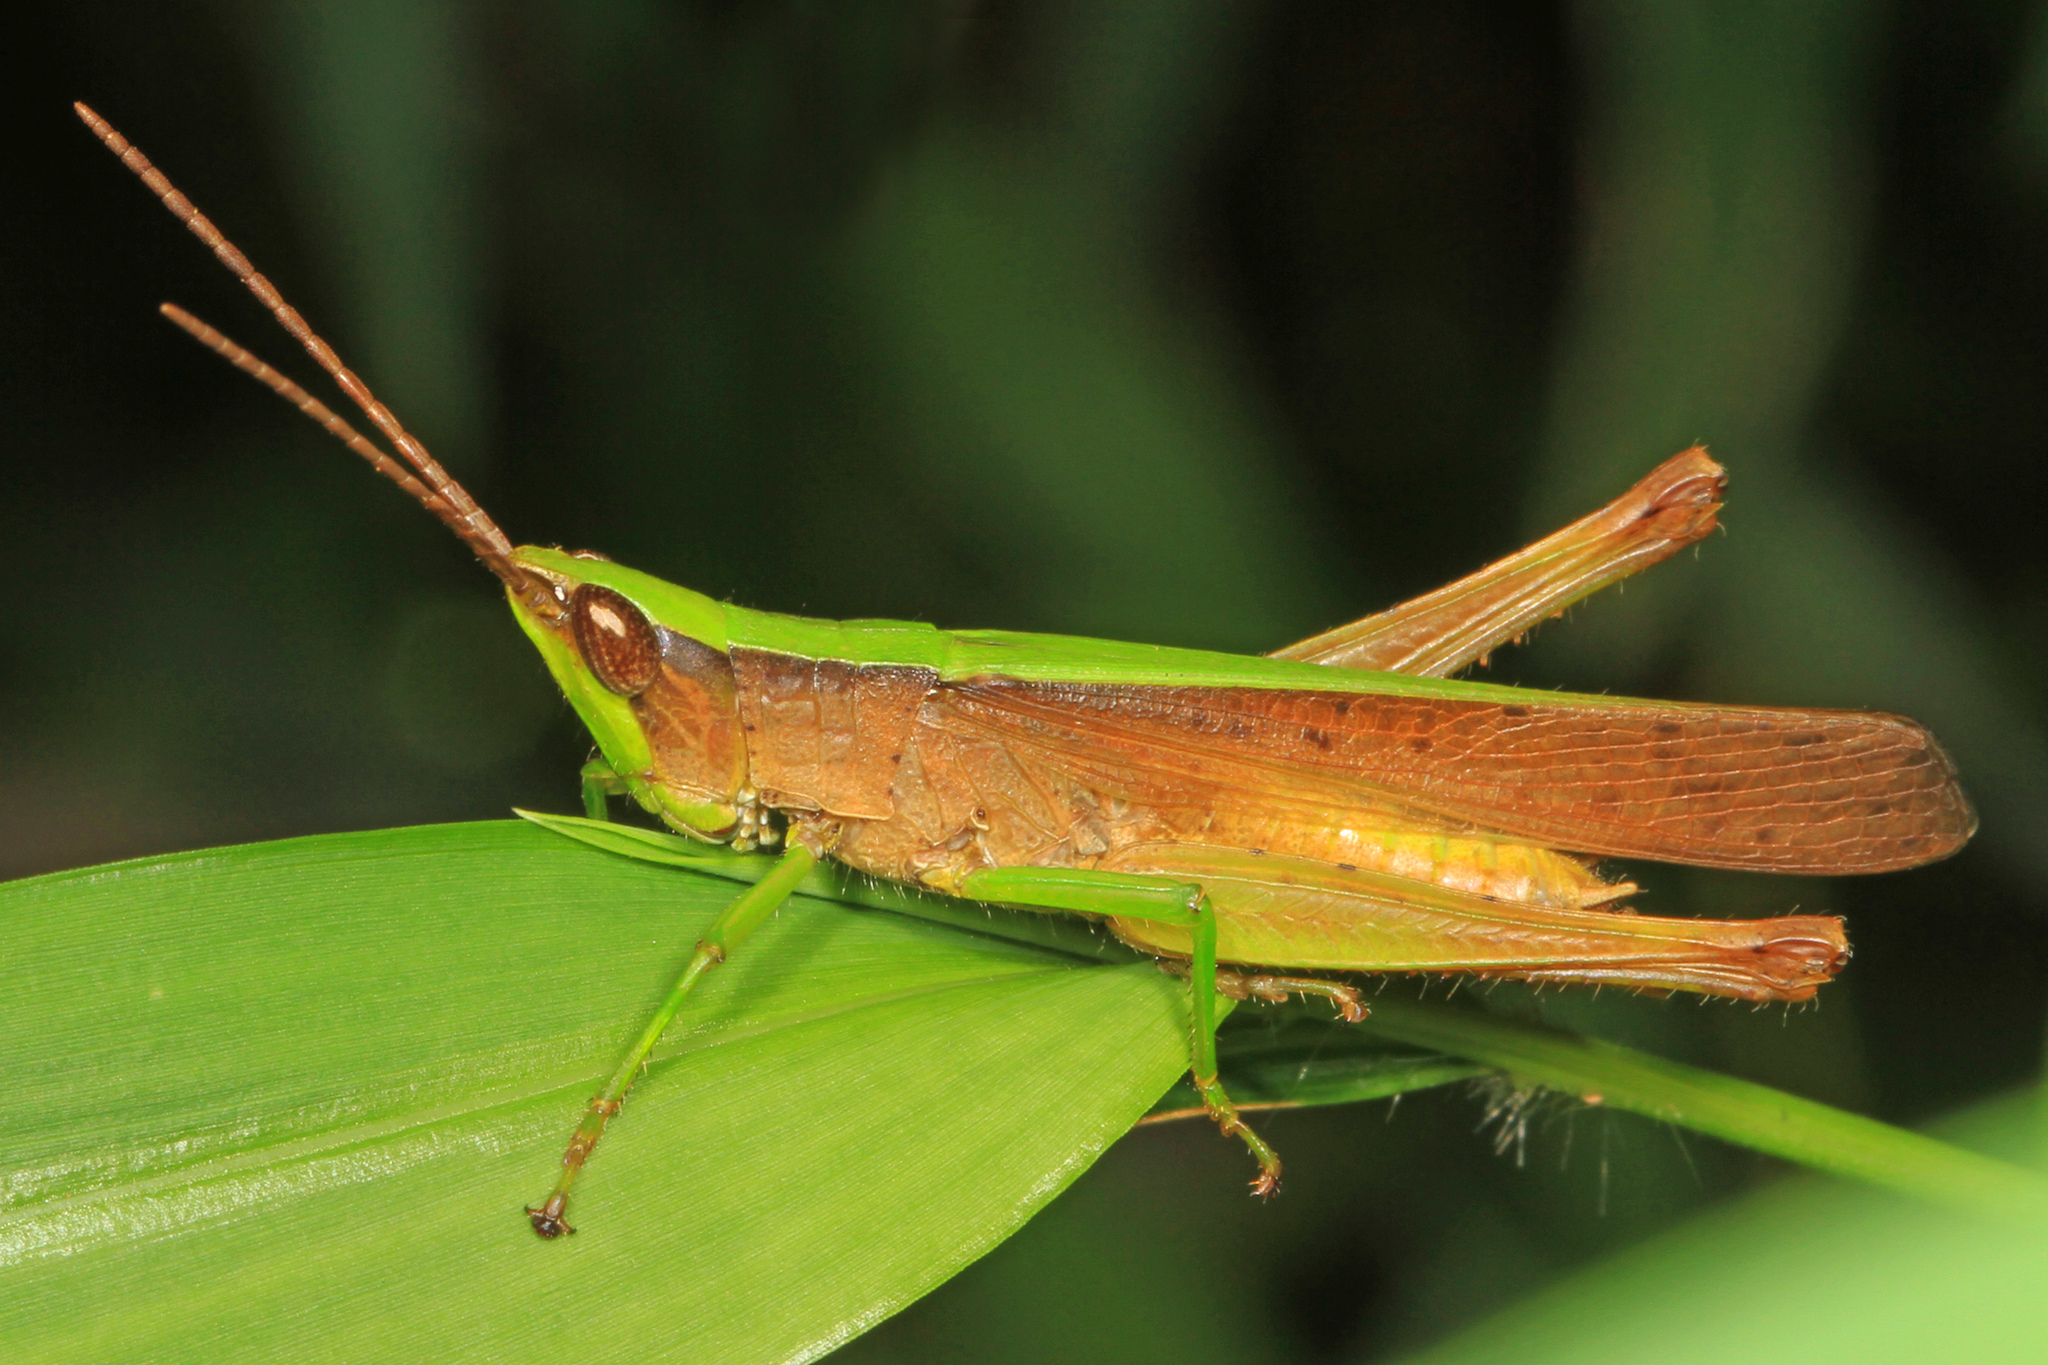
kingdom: Animalia
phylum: Arthropoda
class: Insecta
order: Orthoptera
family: Acrididae
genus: Metaleptea
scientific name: Metaleptea brevicornis
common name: Clipped-wing grasshopper
